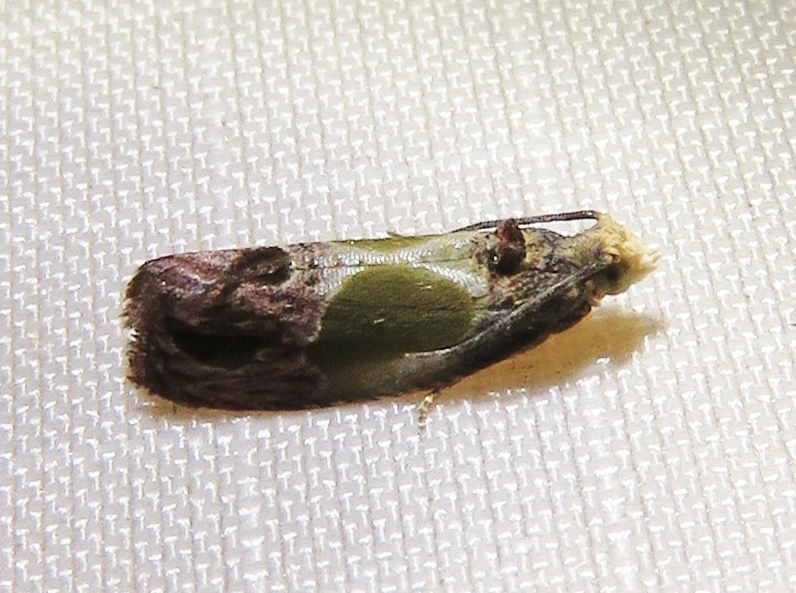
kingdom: Animalia
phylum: Arthropoda
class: Insecta
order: Lepidoptera
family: Tortricidae
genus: Eumarozia
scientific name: Eumarozia malachitana
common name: Sculptured moth
